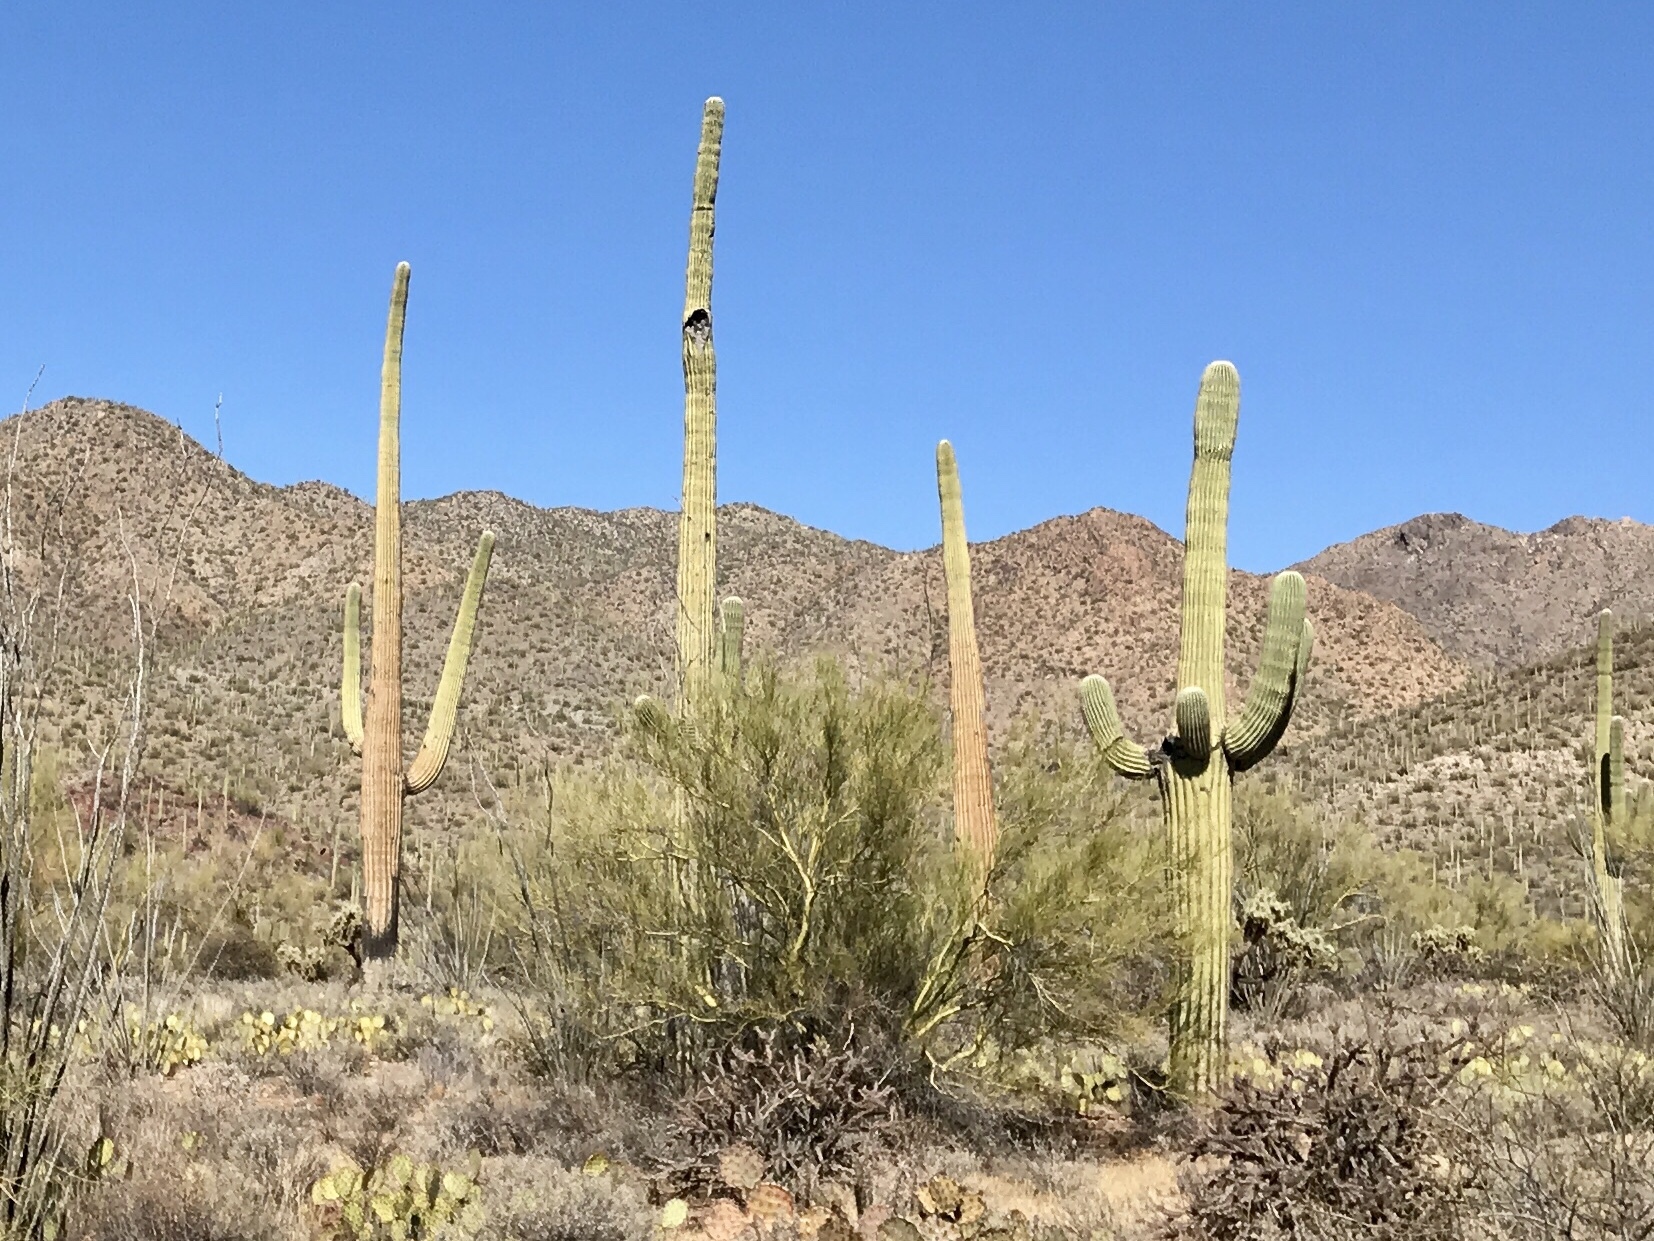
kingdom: Plantae
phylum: Tracheophyta
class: Magnoliopsida
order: Caryophyllales
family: Cactaceae
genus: Carnegiea
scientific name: Carnegiea gigantea
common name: Saguaro
